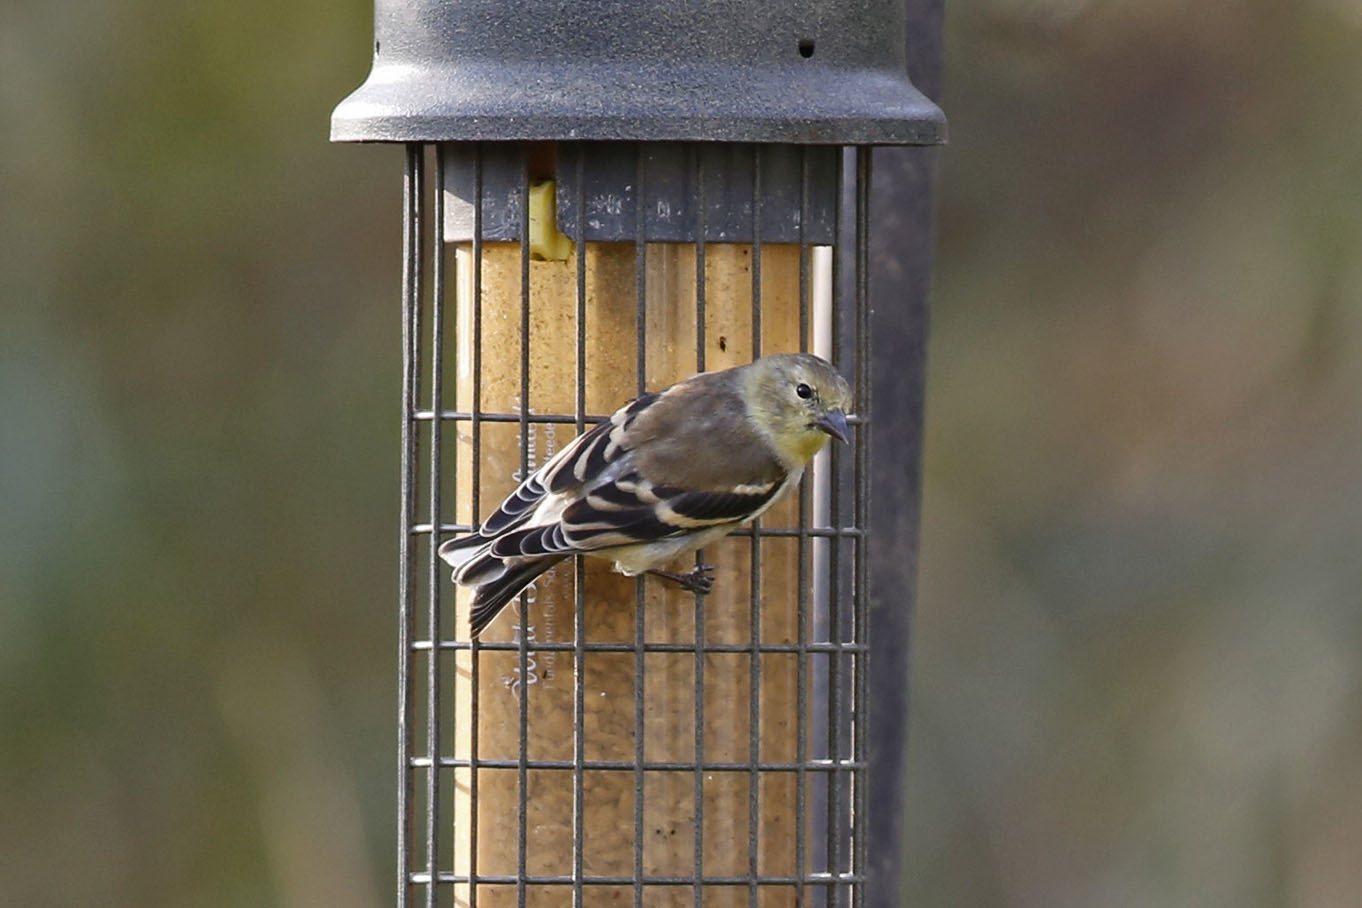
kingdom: Animalia
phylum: Chordata
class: Aves
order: Passeriformes
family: Fringillidae
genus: Spinus
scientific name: Spinus tristis
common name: American goldfinch
